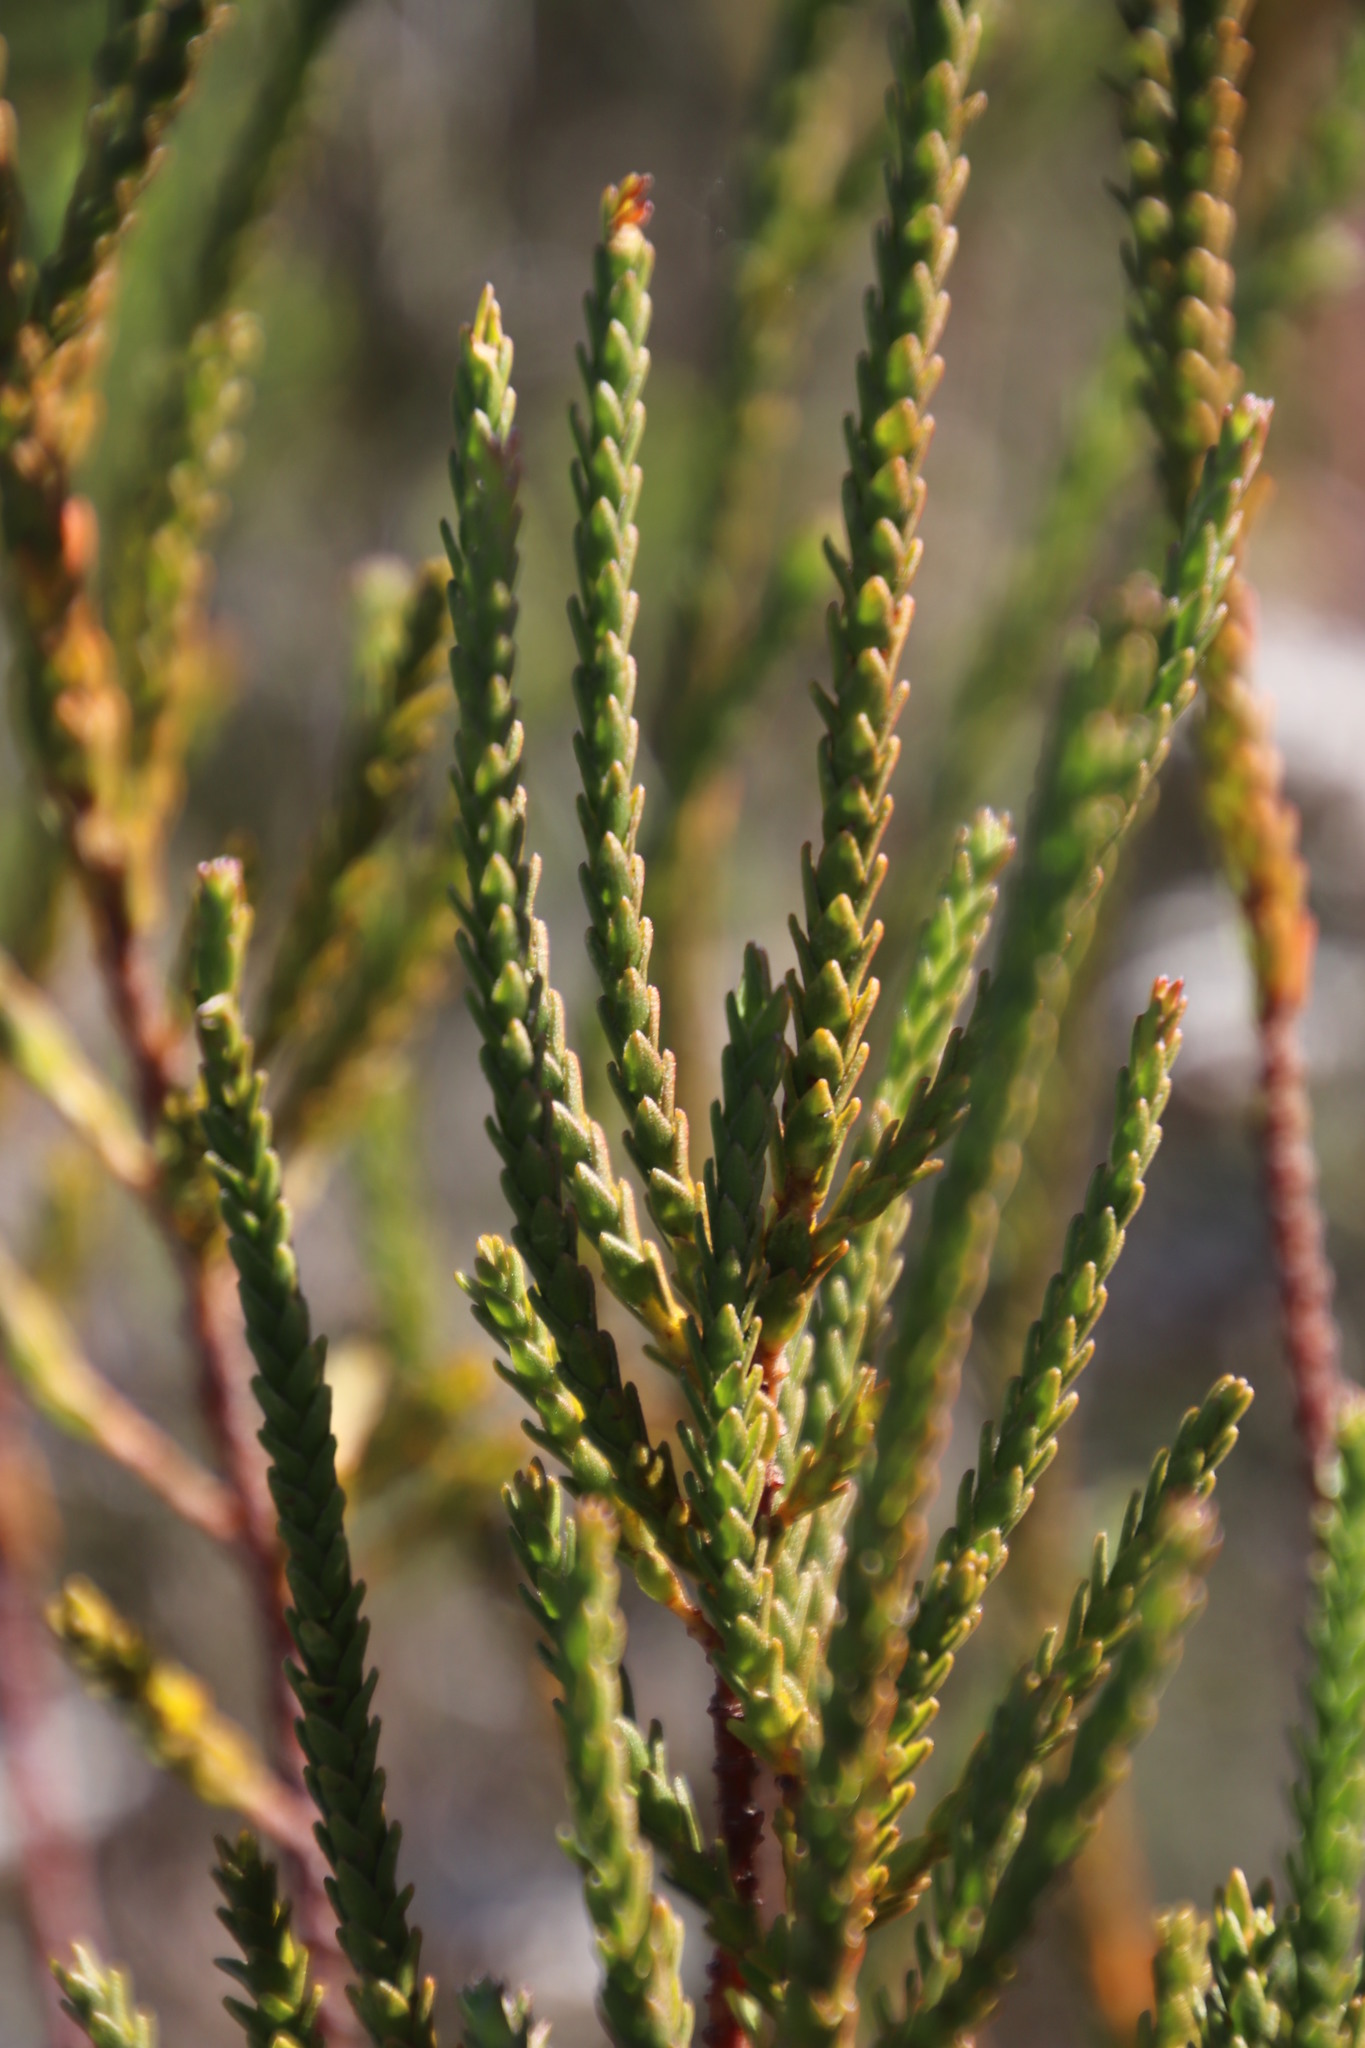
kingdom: Plantae
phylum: Tracheophyta
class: Magnoliopsida
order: Malvales
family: Thymelaeaceae
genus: Struthiola
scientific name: Struthiola striata
